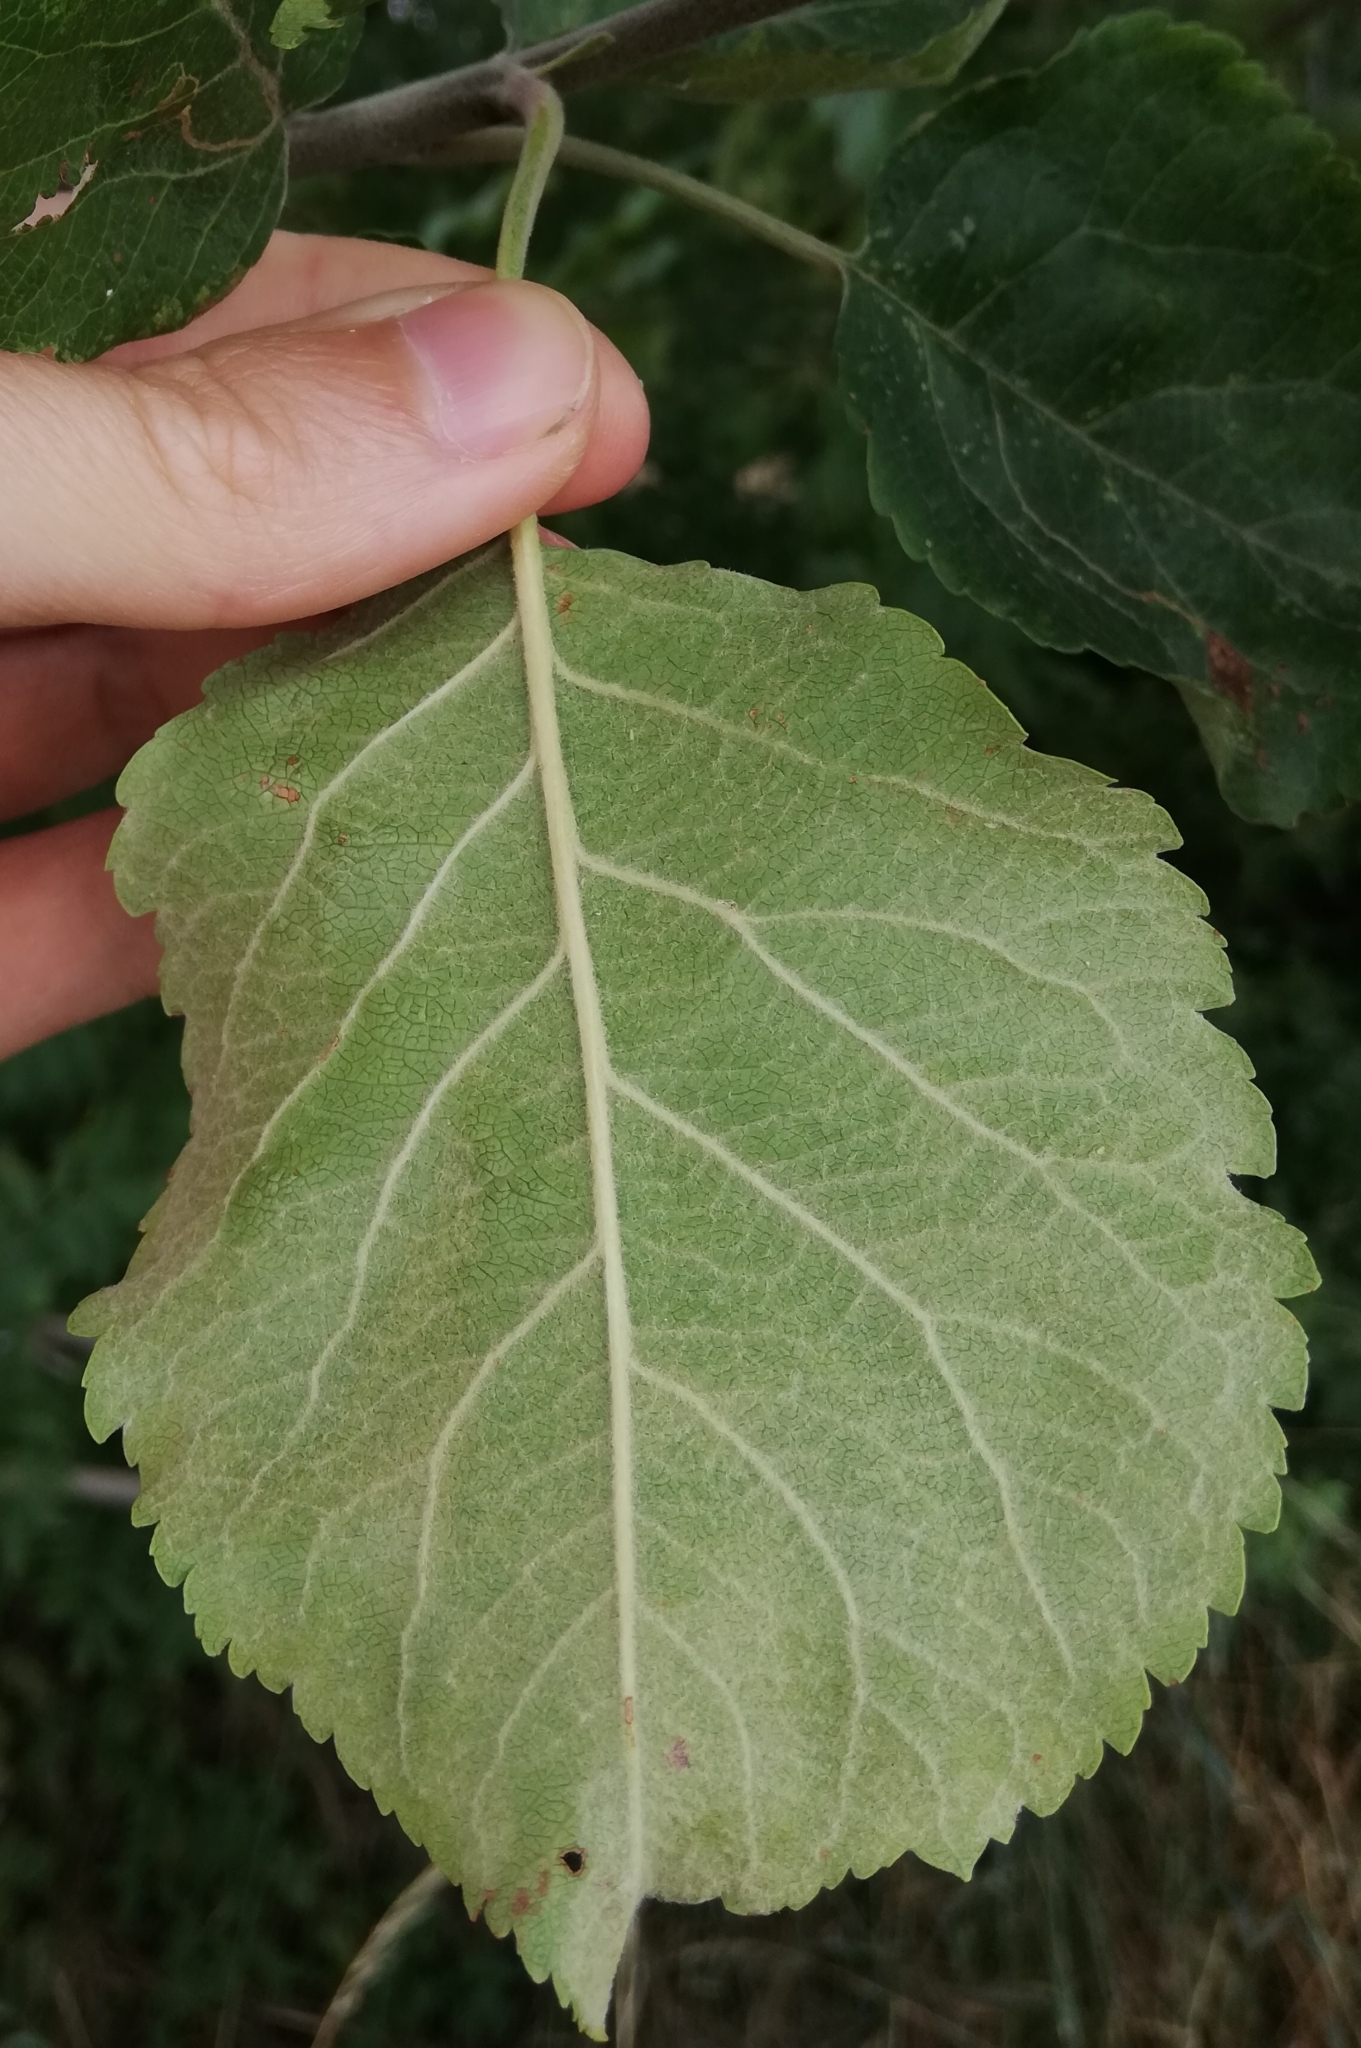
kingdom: Plantae
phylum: Tracheophyta
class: Magnoliopsida
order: Rosales
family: Rosaceae
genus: Malus
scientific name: Malus domestica
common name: Apple
